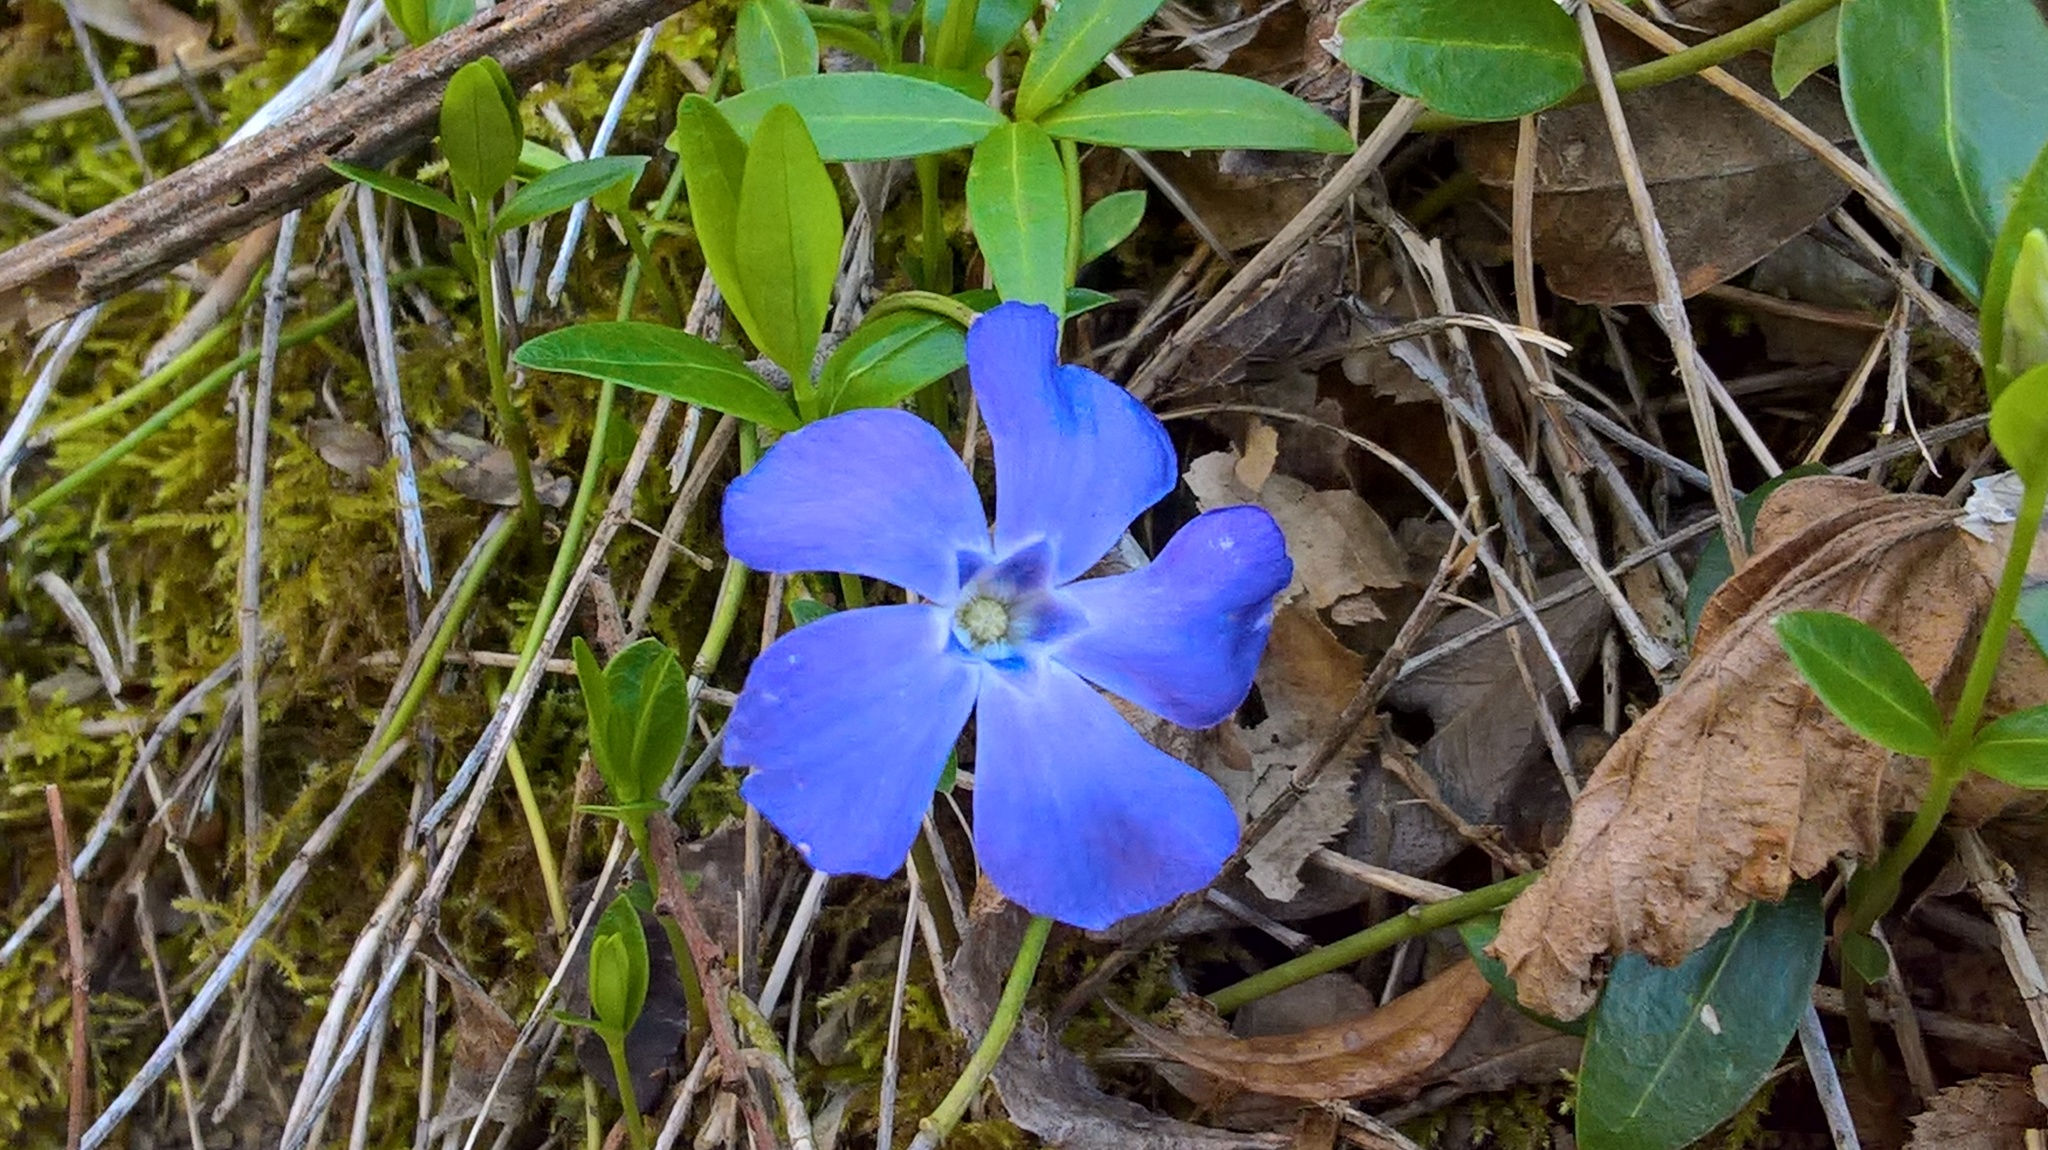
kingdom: Plantae
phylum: Tracheophyta
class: Magnoliopsida
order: Gentianales
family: Apocynaceae
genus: Vinca
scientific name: Vinca minor
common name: Lesser periwinkle
